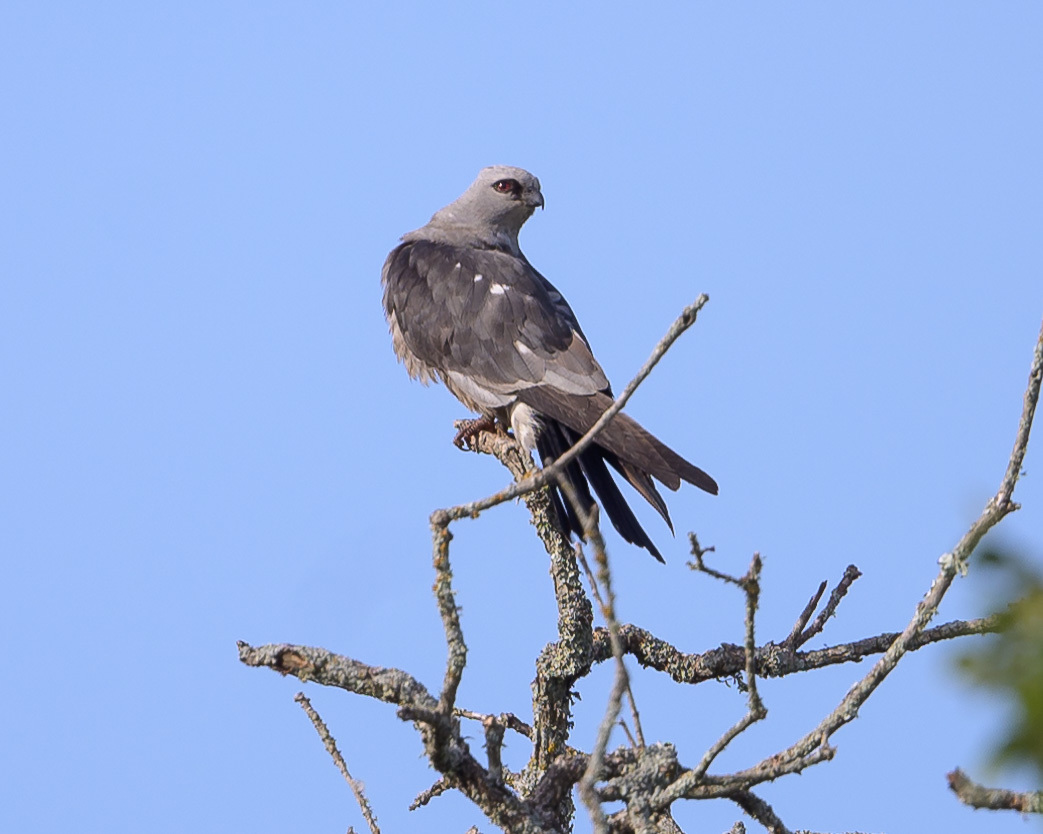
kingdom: Animalia
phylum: Chordata
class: Aves
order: Accipitriformes
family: Accipitridae
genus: Ictinia
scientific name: Ictinia mississippiensis
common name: Mississippi kite
